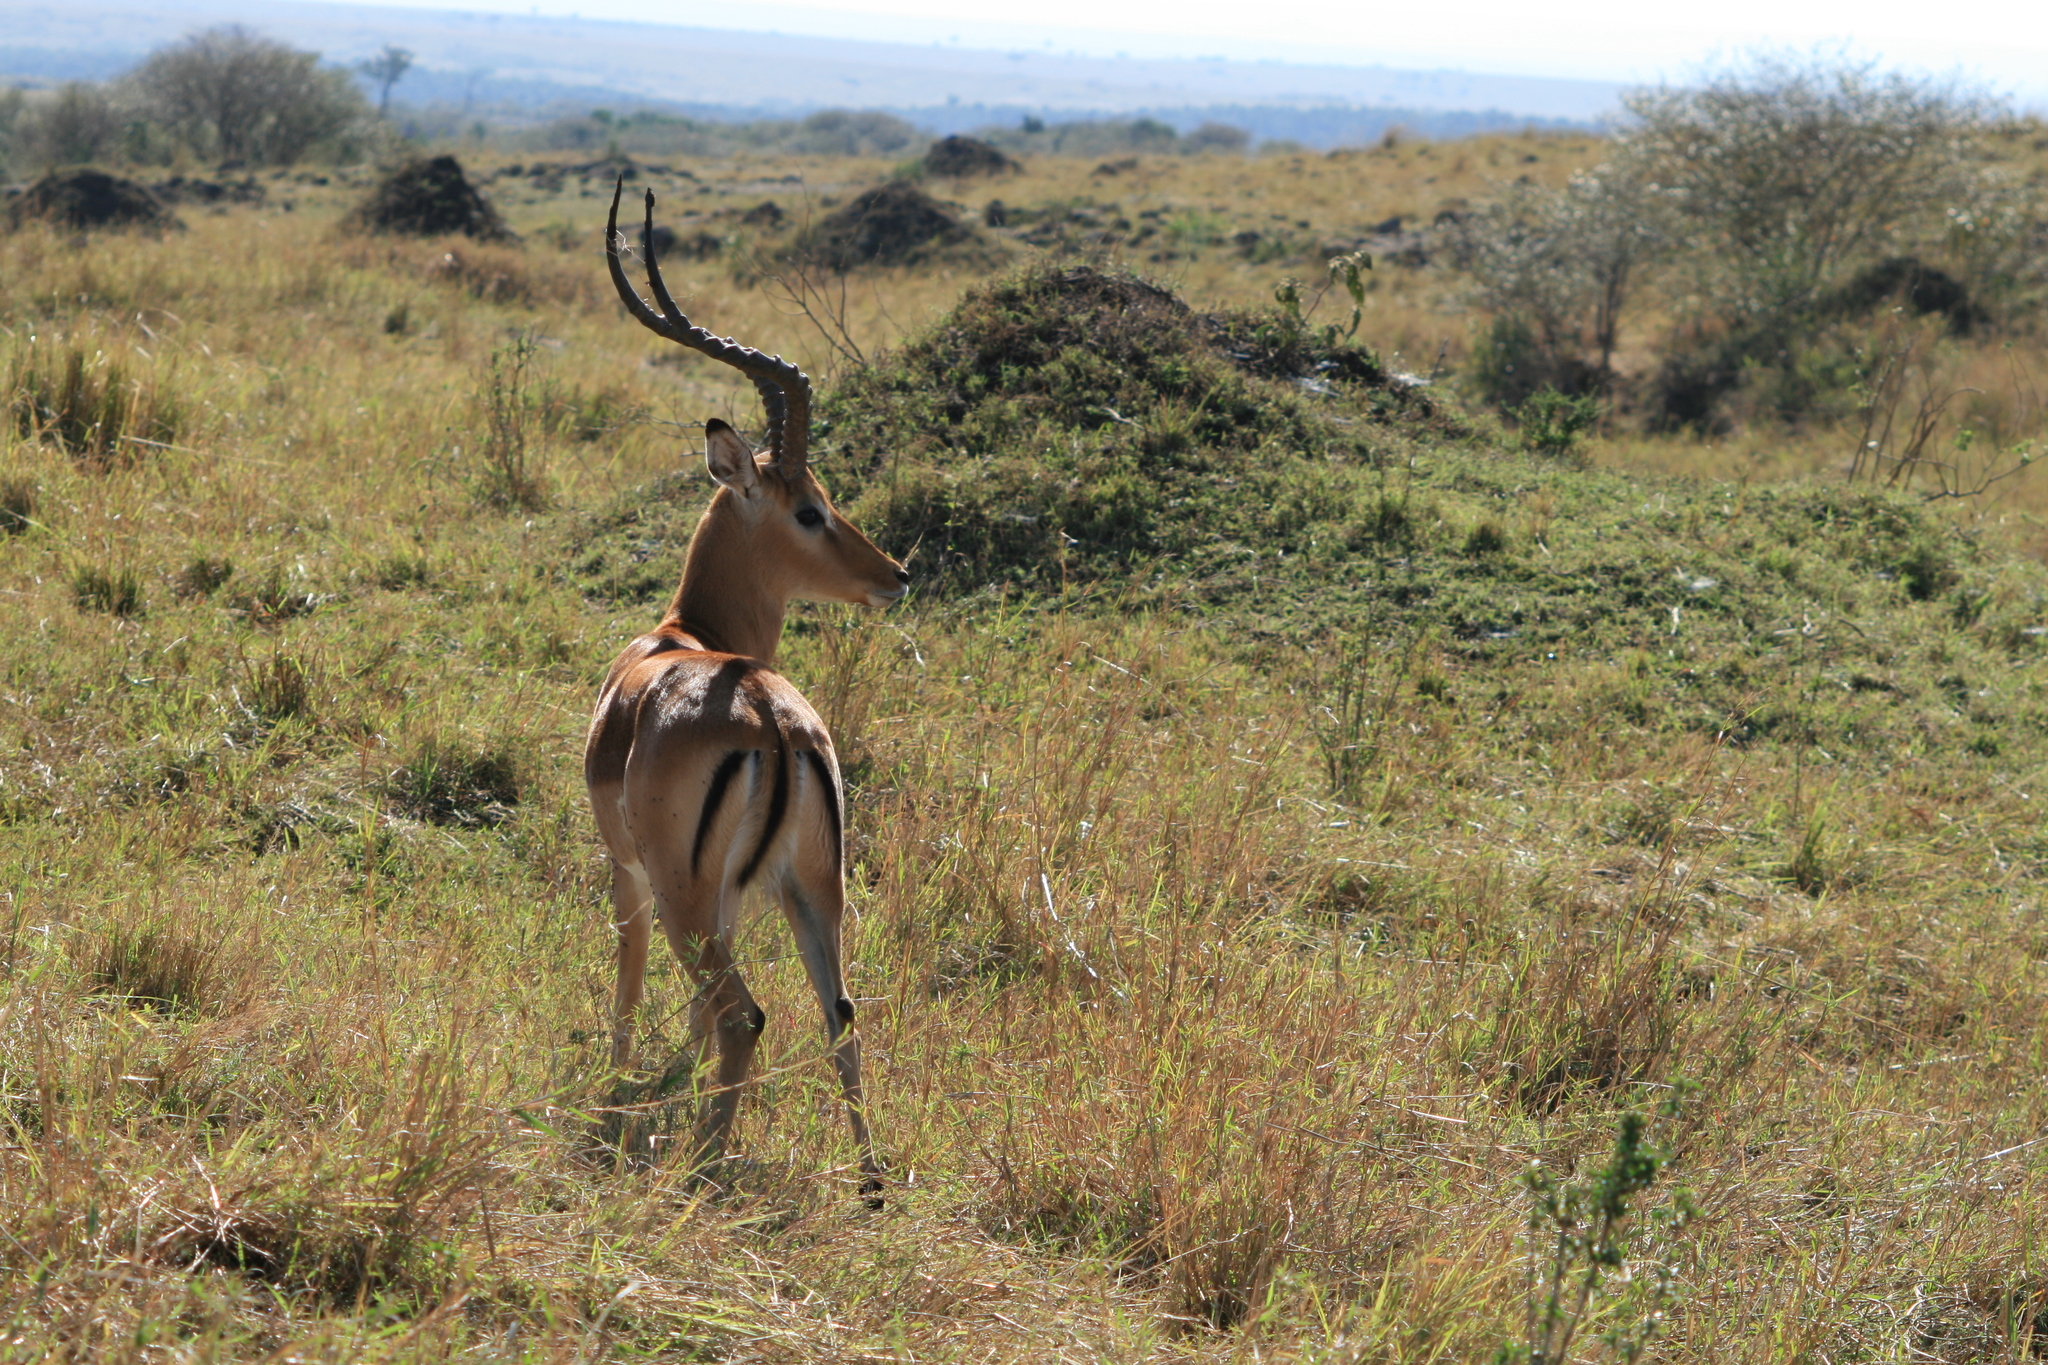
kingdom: Animalia
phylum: Chordata
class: Mammalia
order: Artiodactyla
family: Bovidae
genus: Aepyceros
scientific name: Aepyceros melampus
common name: Impala
